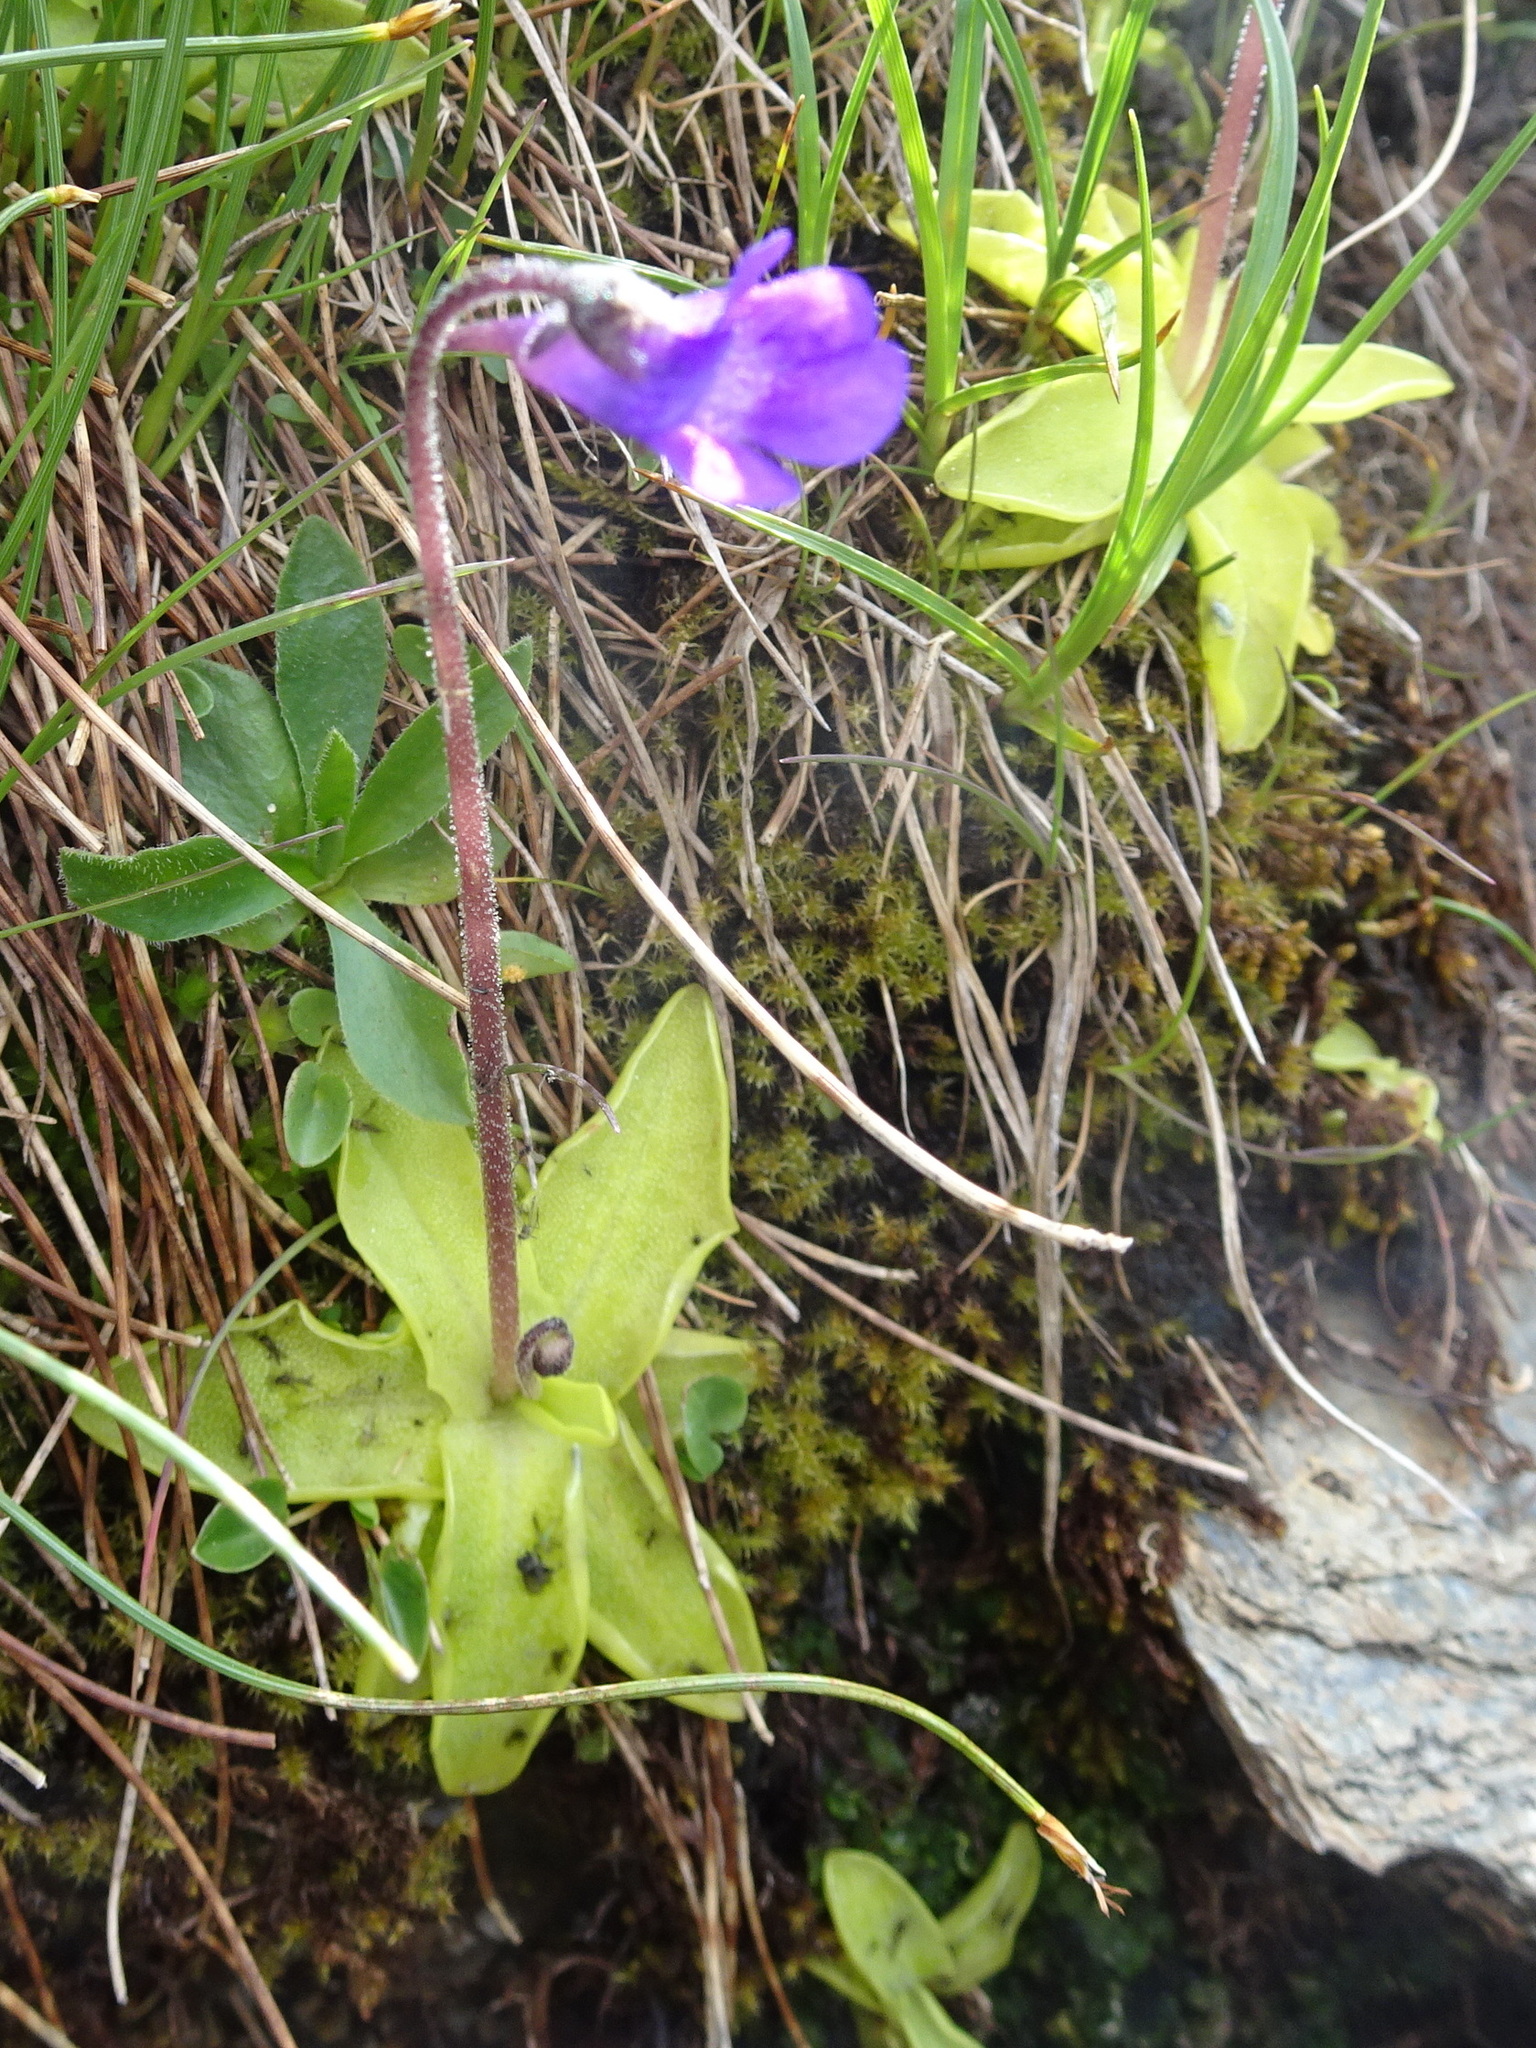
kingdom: Plantae
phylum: Tracheophyta
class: Magnoliopsida
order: Lamiales
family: Lentibulariaceae
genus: Pinguicula
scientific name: Pinguicula vulgaris
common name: Common butterwort
